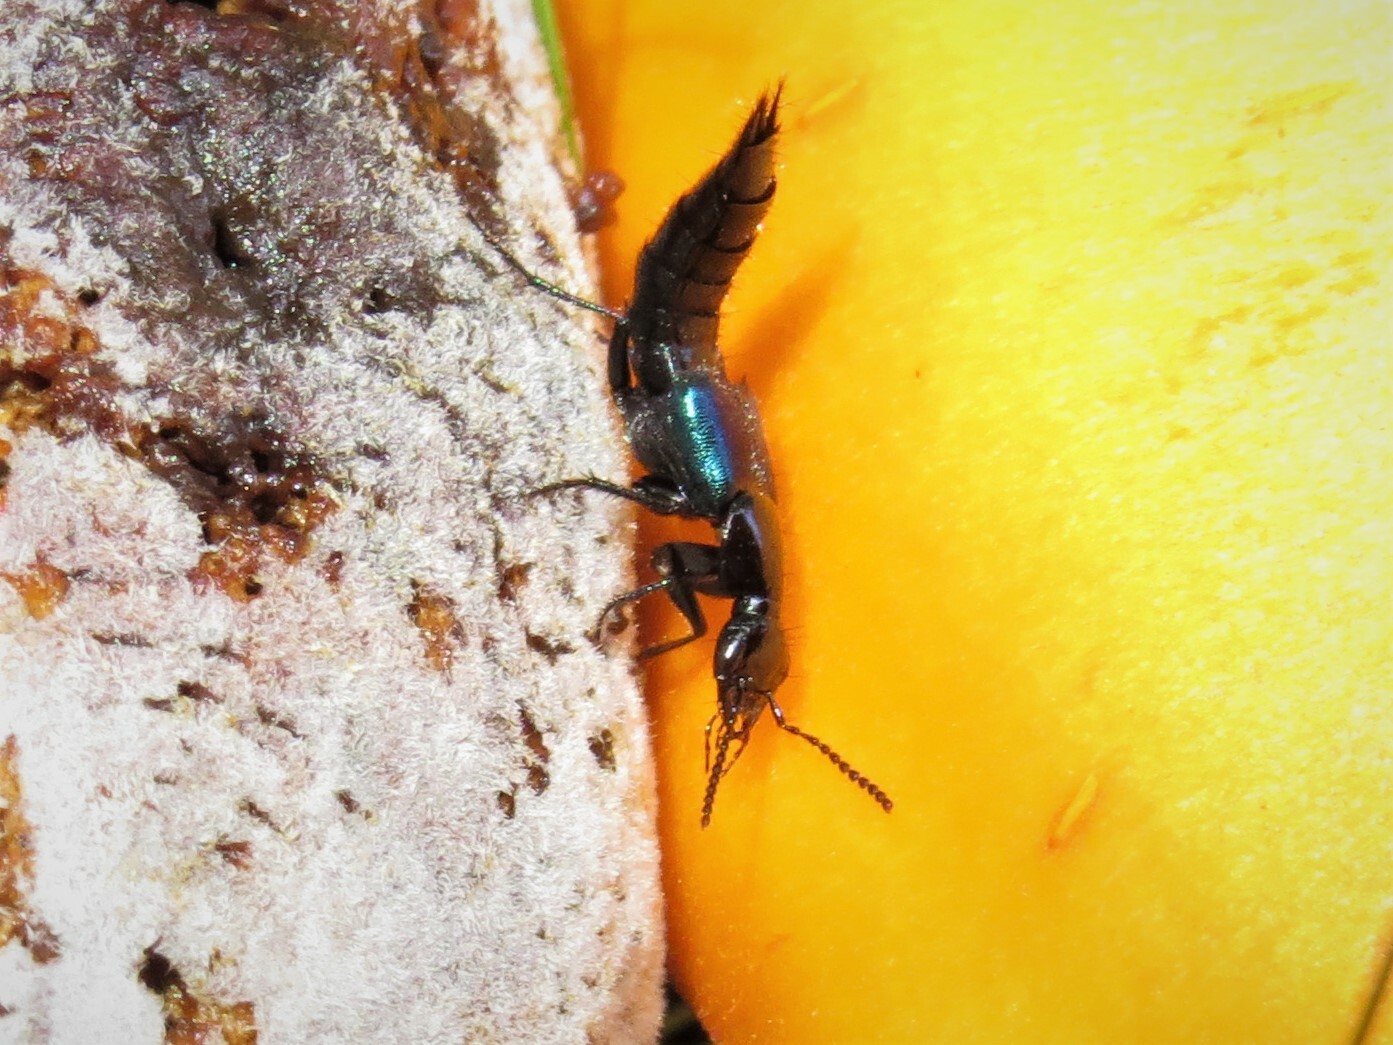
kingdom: Animalia
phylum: Arthropoda
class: Insecta
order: Coleoptera
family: Staphylinidae
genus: Philonthus
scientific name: Philonthus caeruleipennis
